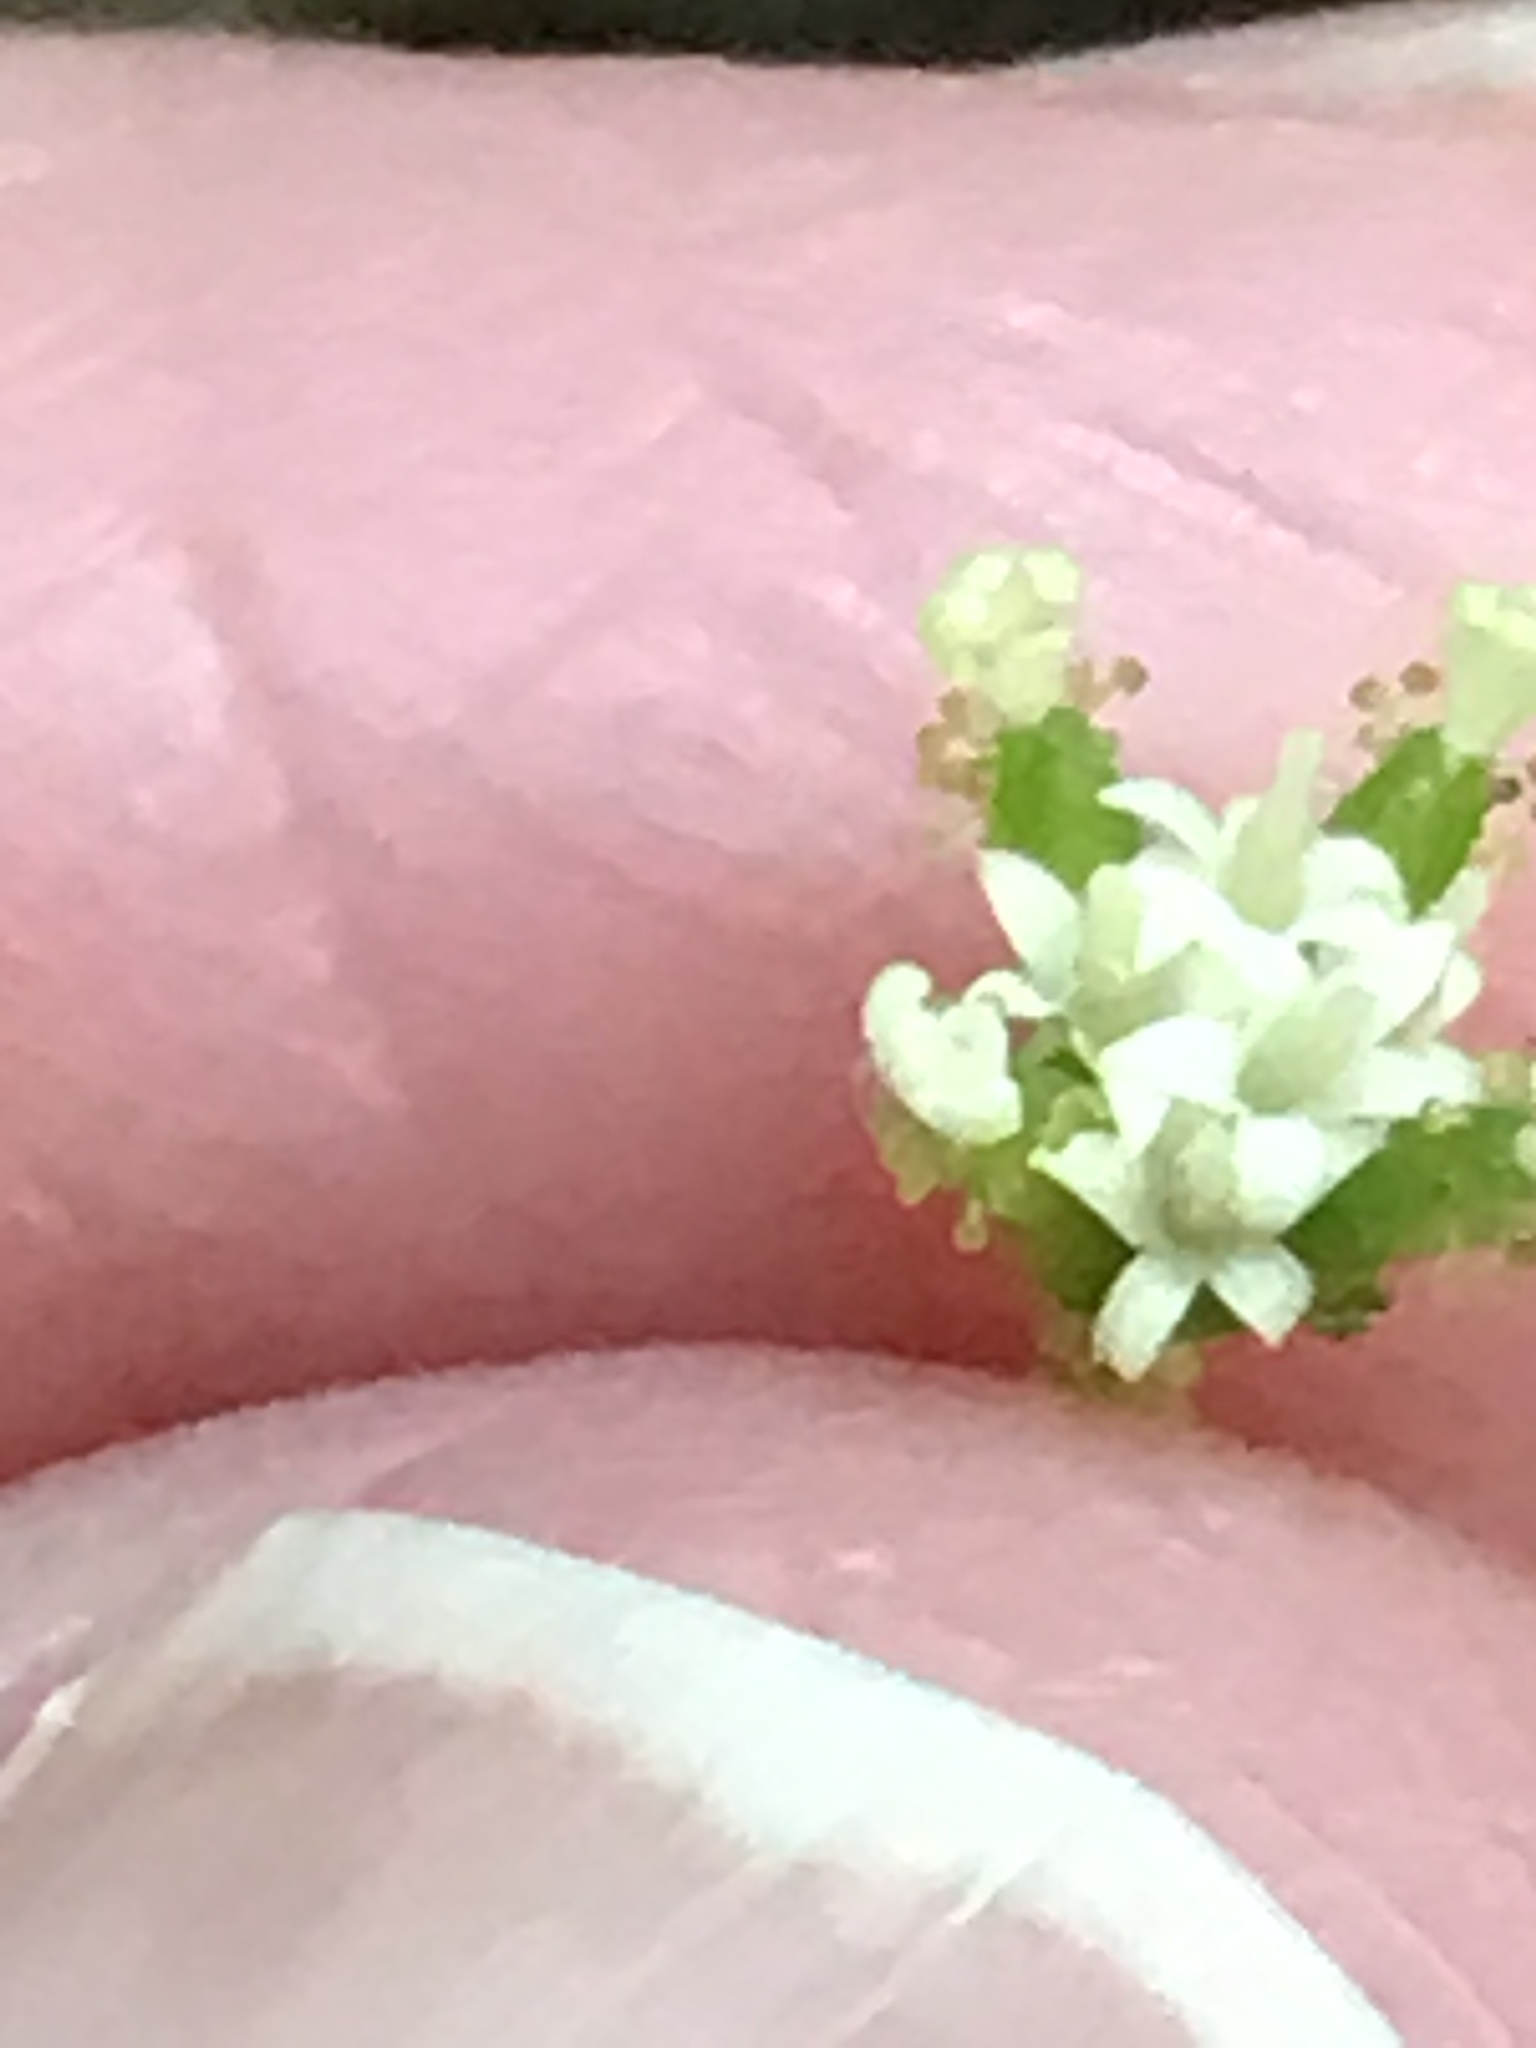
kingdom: Plantae
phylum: Tracheophyta
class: Magnoliopsida
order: Asterales
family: Asteraceae
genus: Adenocaulon
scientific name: Adenocaulon bicolor
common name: Trailplant
